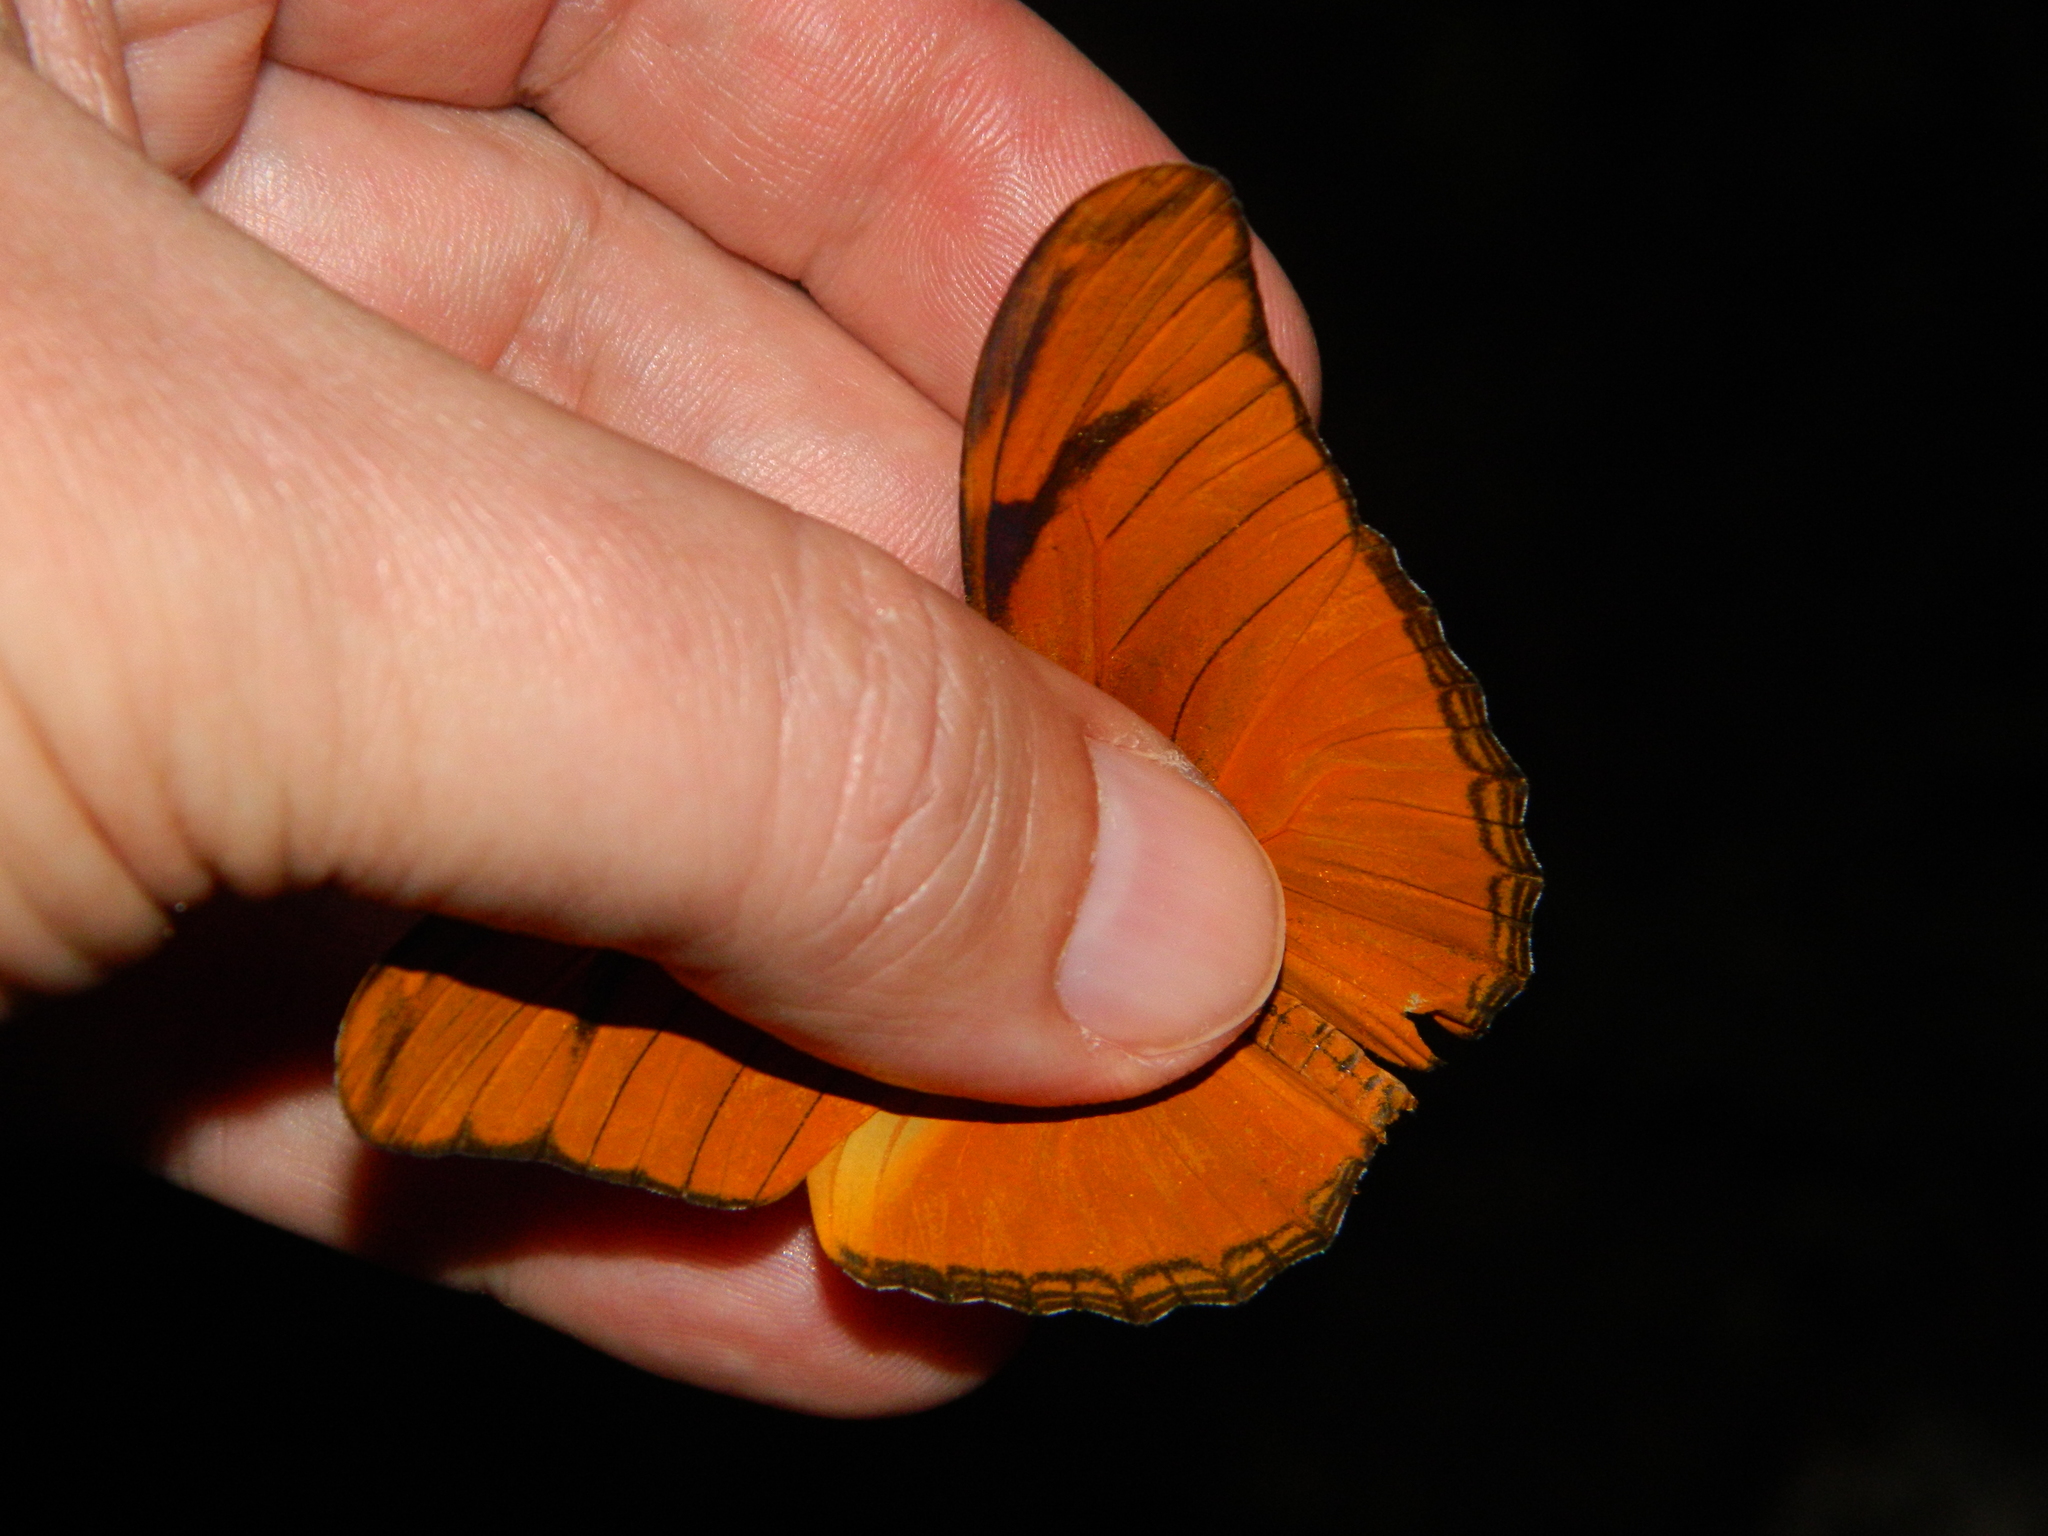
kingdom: Animalia
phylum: Arthropoda
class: Insecta
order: Lepidoptera
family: Nymphalidae
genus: Dryas
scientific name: Dryas iulia
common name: Flambeau
